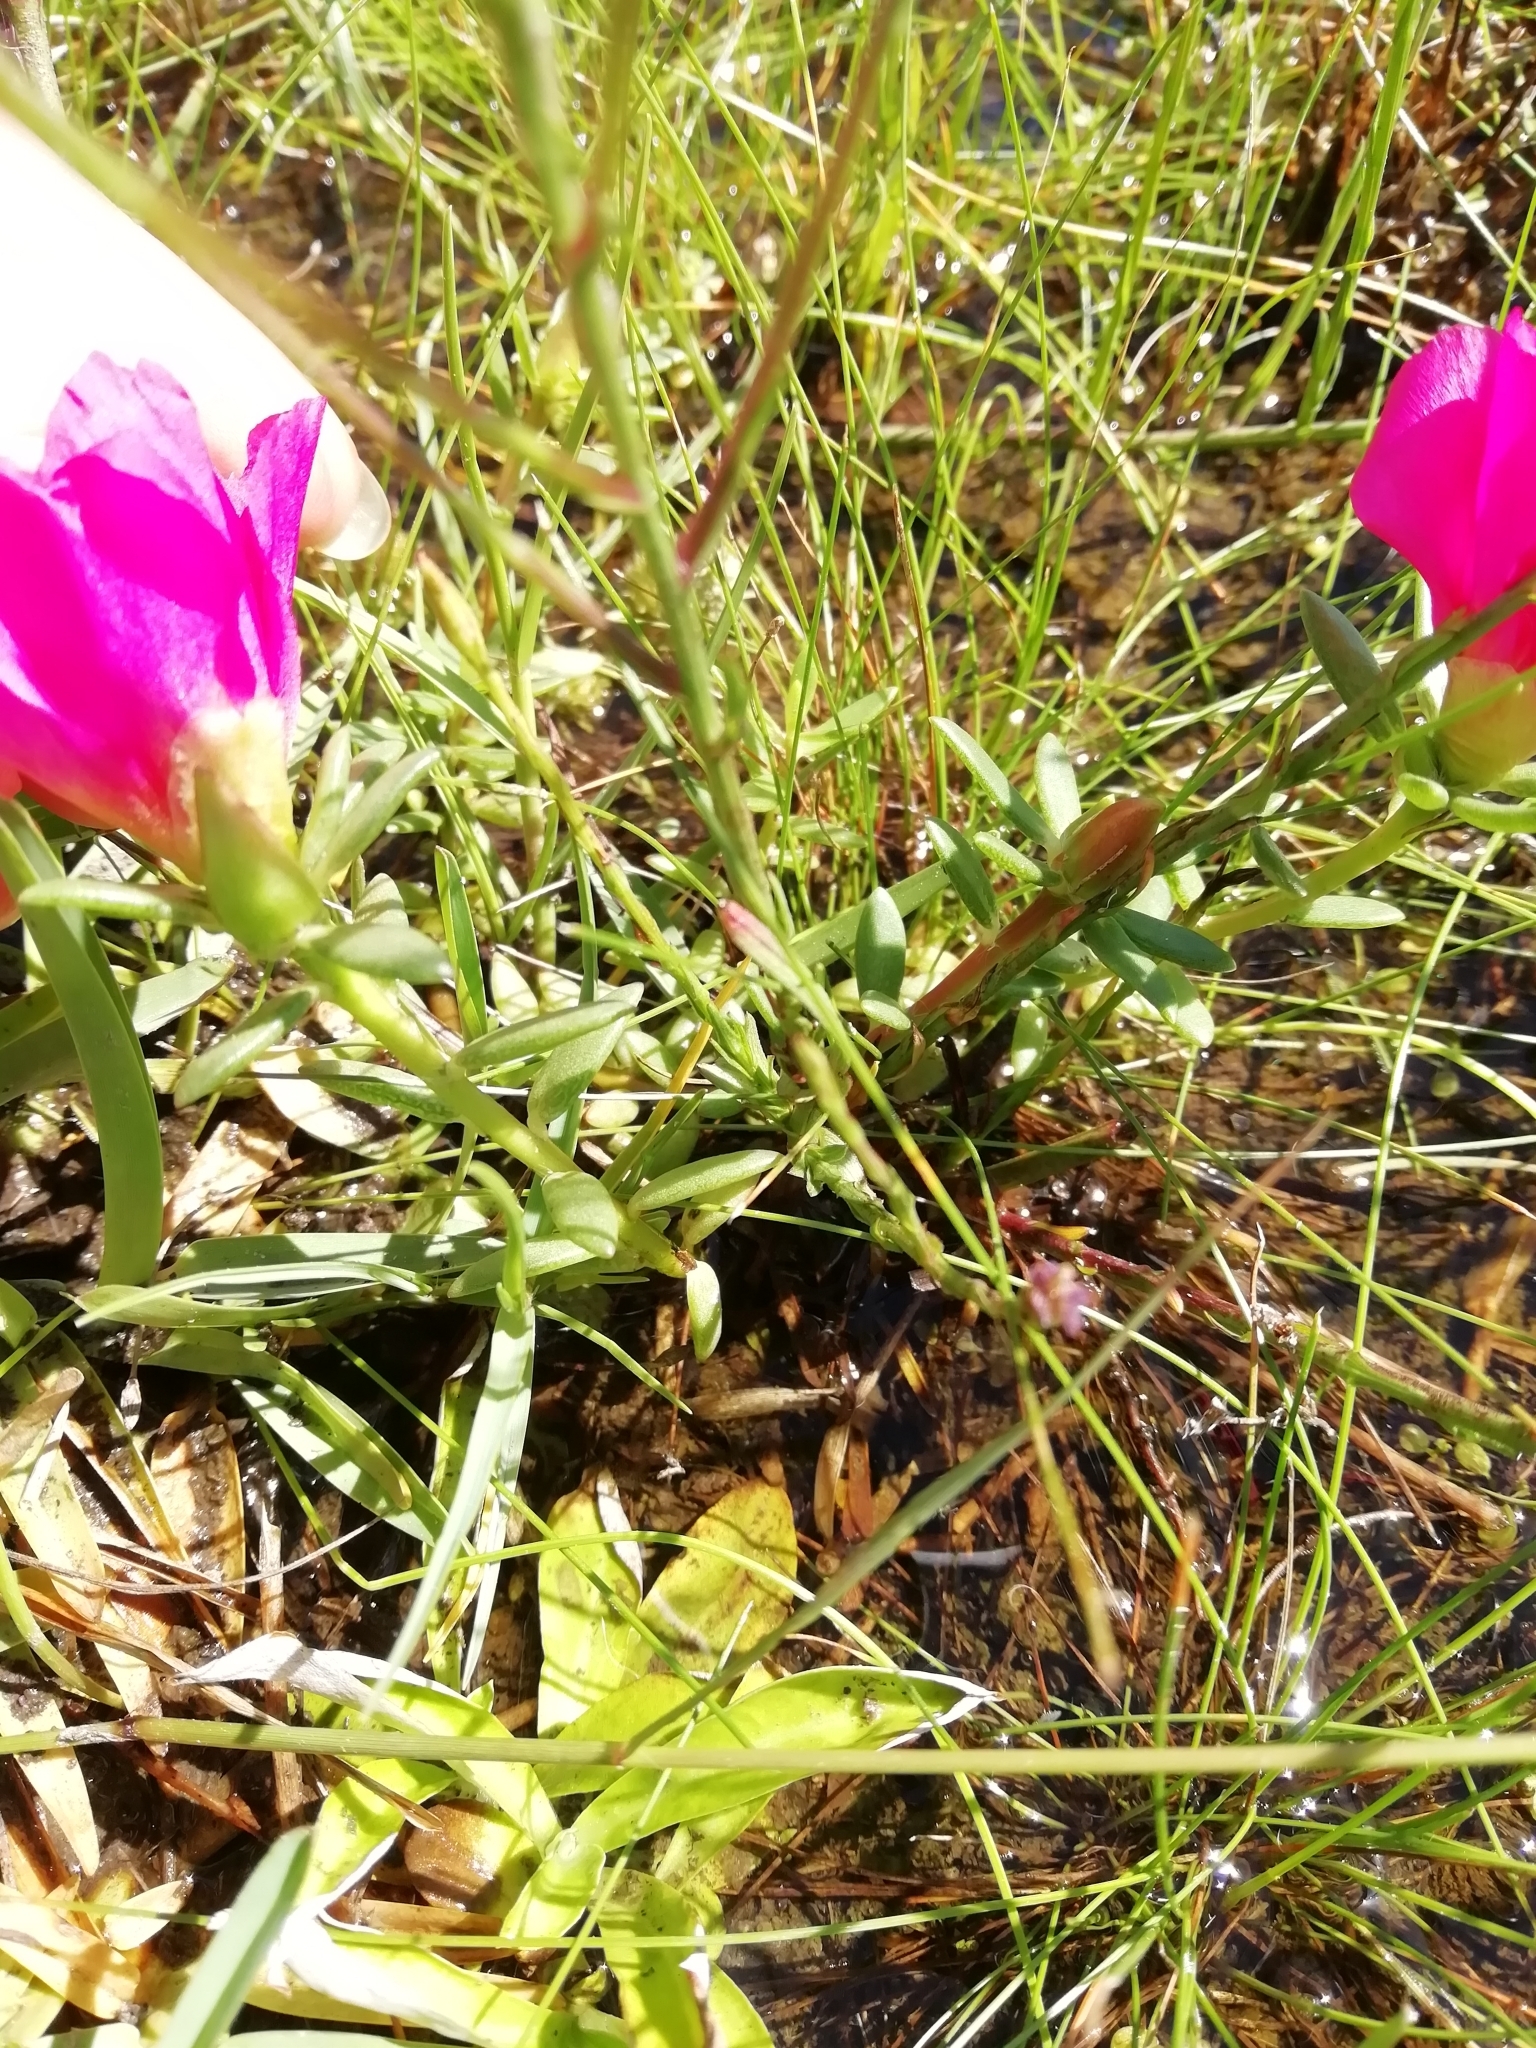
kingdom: Plantae
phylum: Tracheophyta
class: Magnoliopsida
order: Caryophyllales
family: Portulacaceae
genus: Portulaca
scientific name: Portulaca grandiflora
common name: Moss-rose
